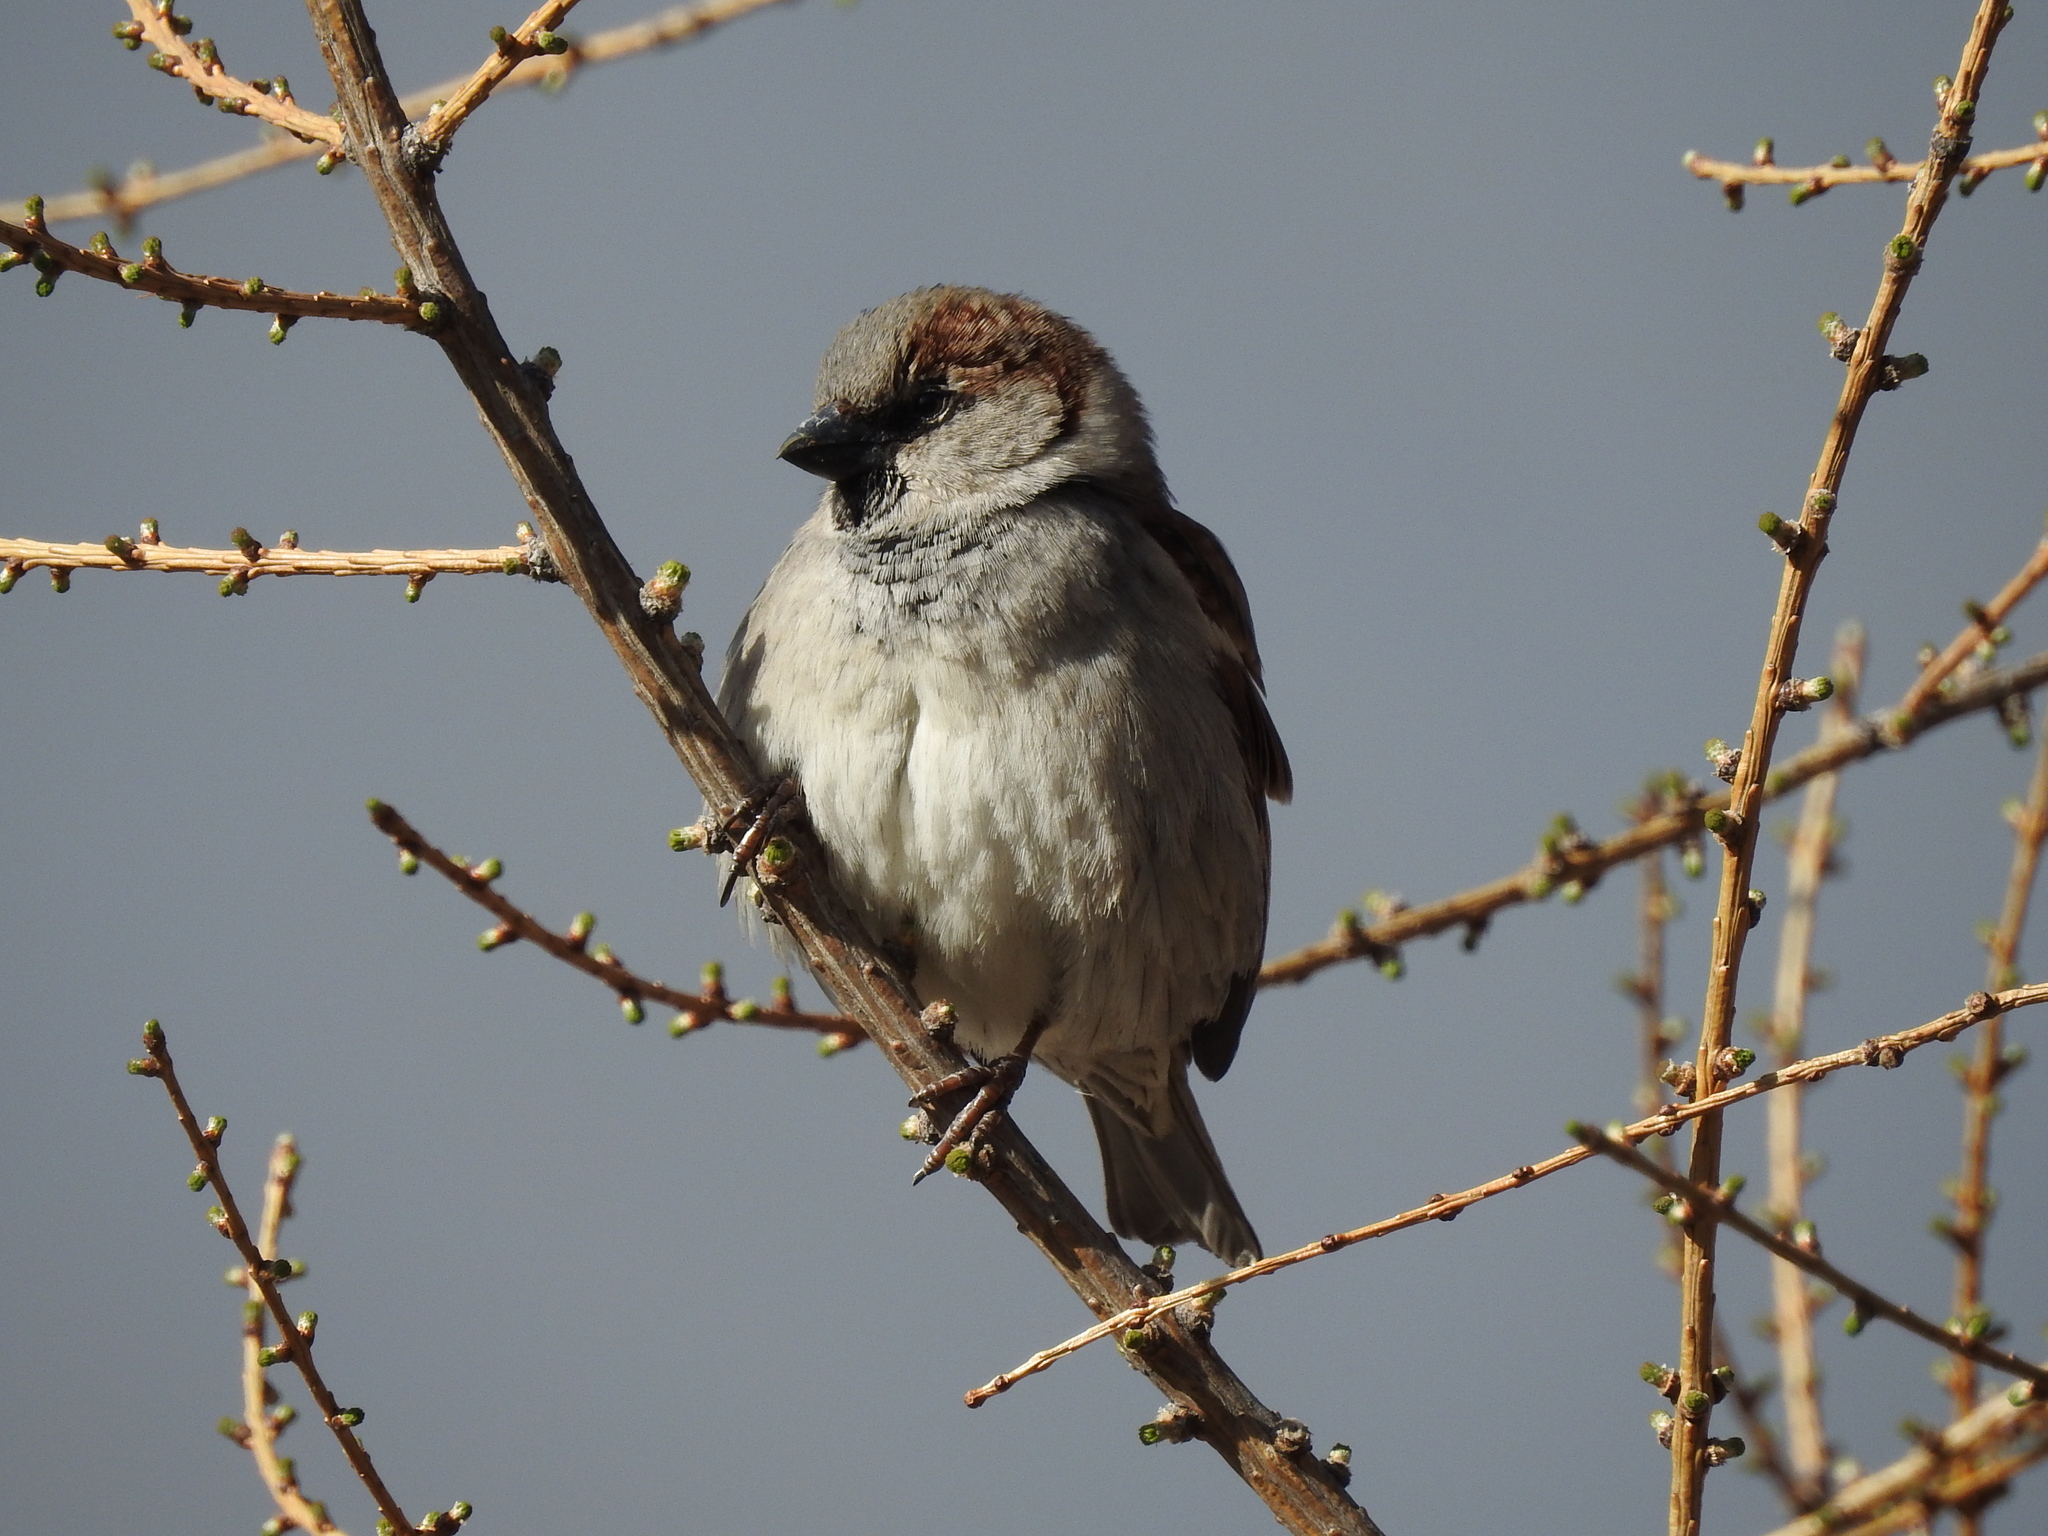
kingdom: Animalia
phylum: Chordata
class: Aves
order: Passeriformes
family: Passeridae
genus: Passer
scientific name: Passer domesticus
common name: House sparrow
